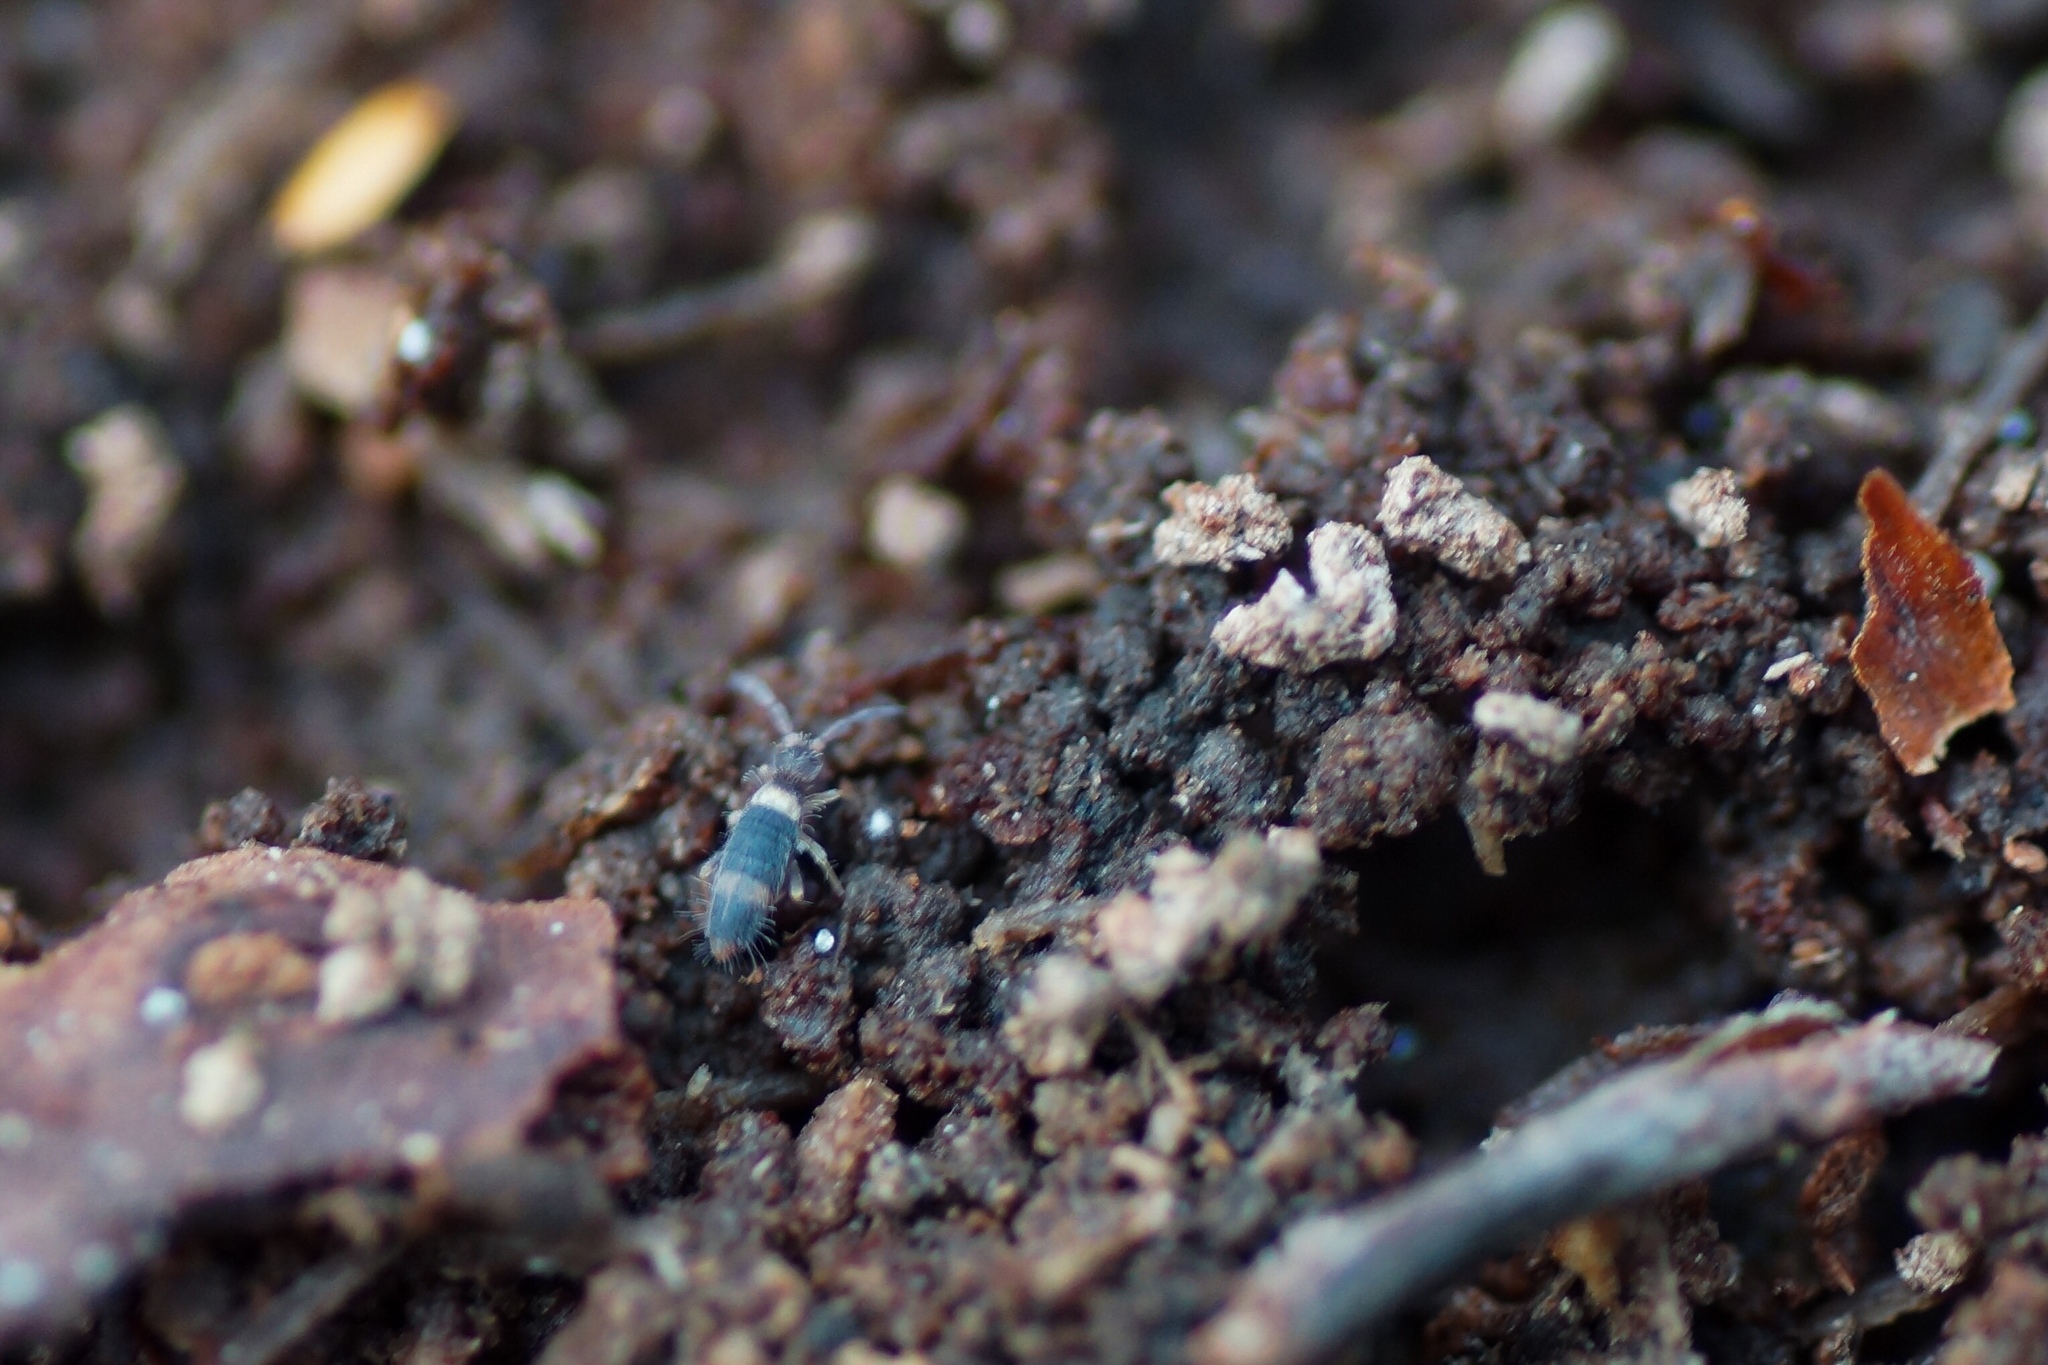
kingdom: Animalia
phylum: Arthropoda
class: Collembola
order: Entomobryomorpha
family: Entomobryidae
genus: Entomobrya
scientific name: Entomobrya albocincta
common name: Springtail
